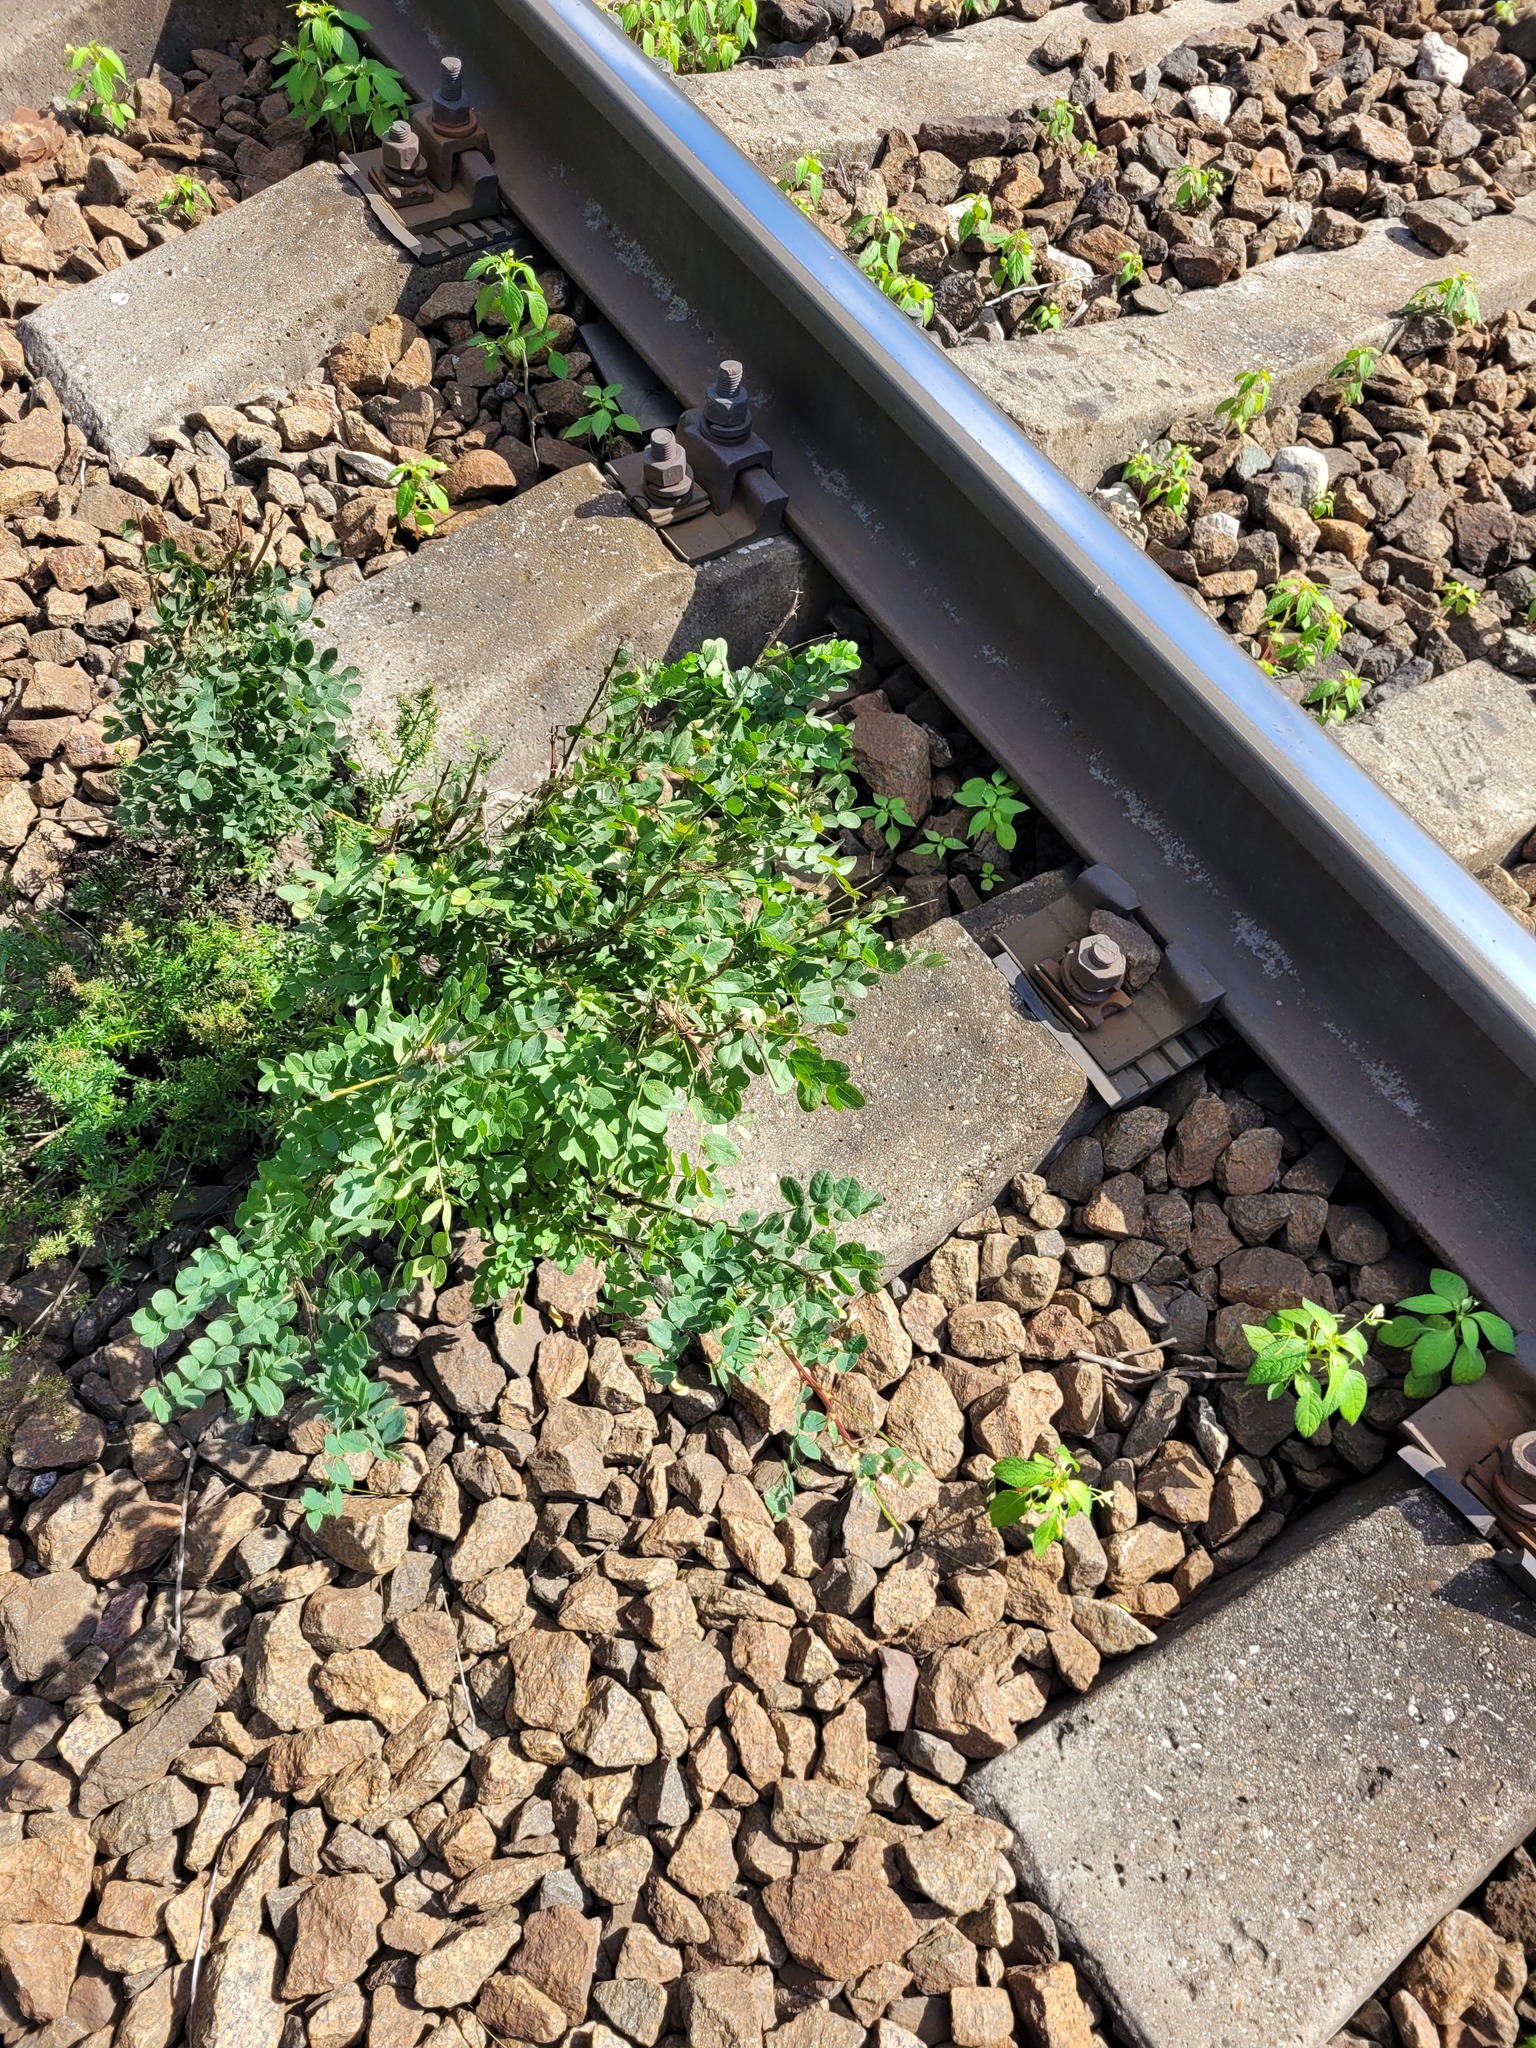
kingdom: Plantae
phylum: Tracheophyta
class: Magnoliopsida
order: Fabales
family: Fabaceae
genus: Caragana
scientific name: Caragana arborescens
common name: Siberian peashrub
